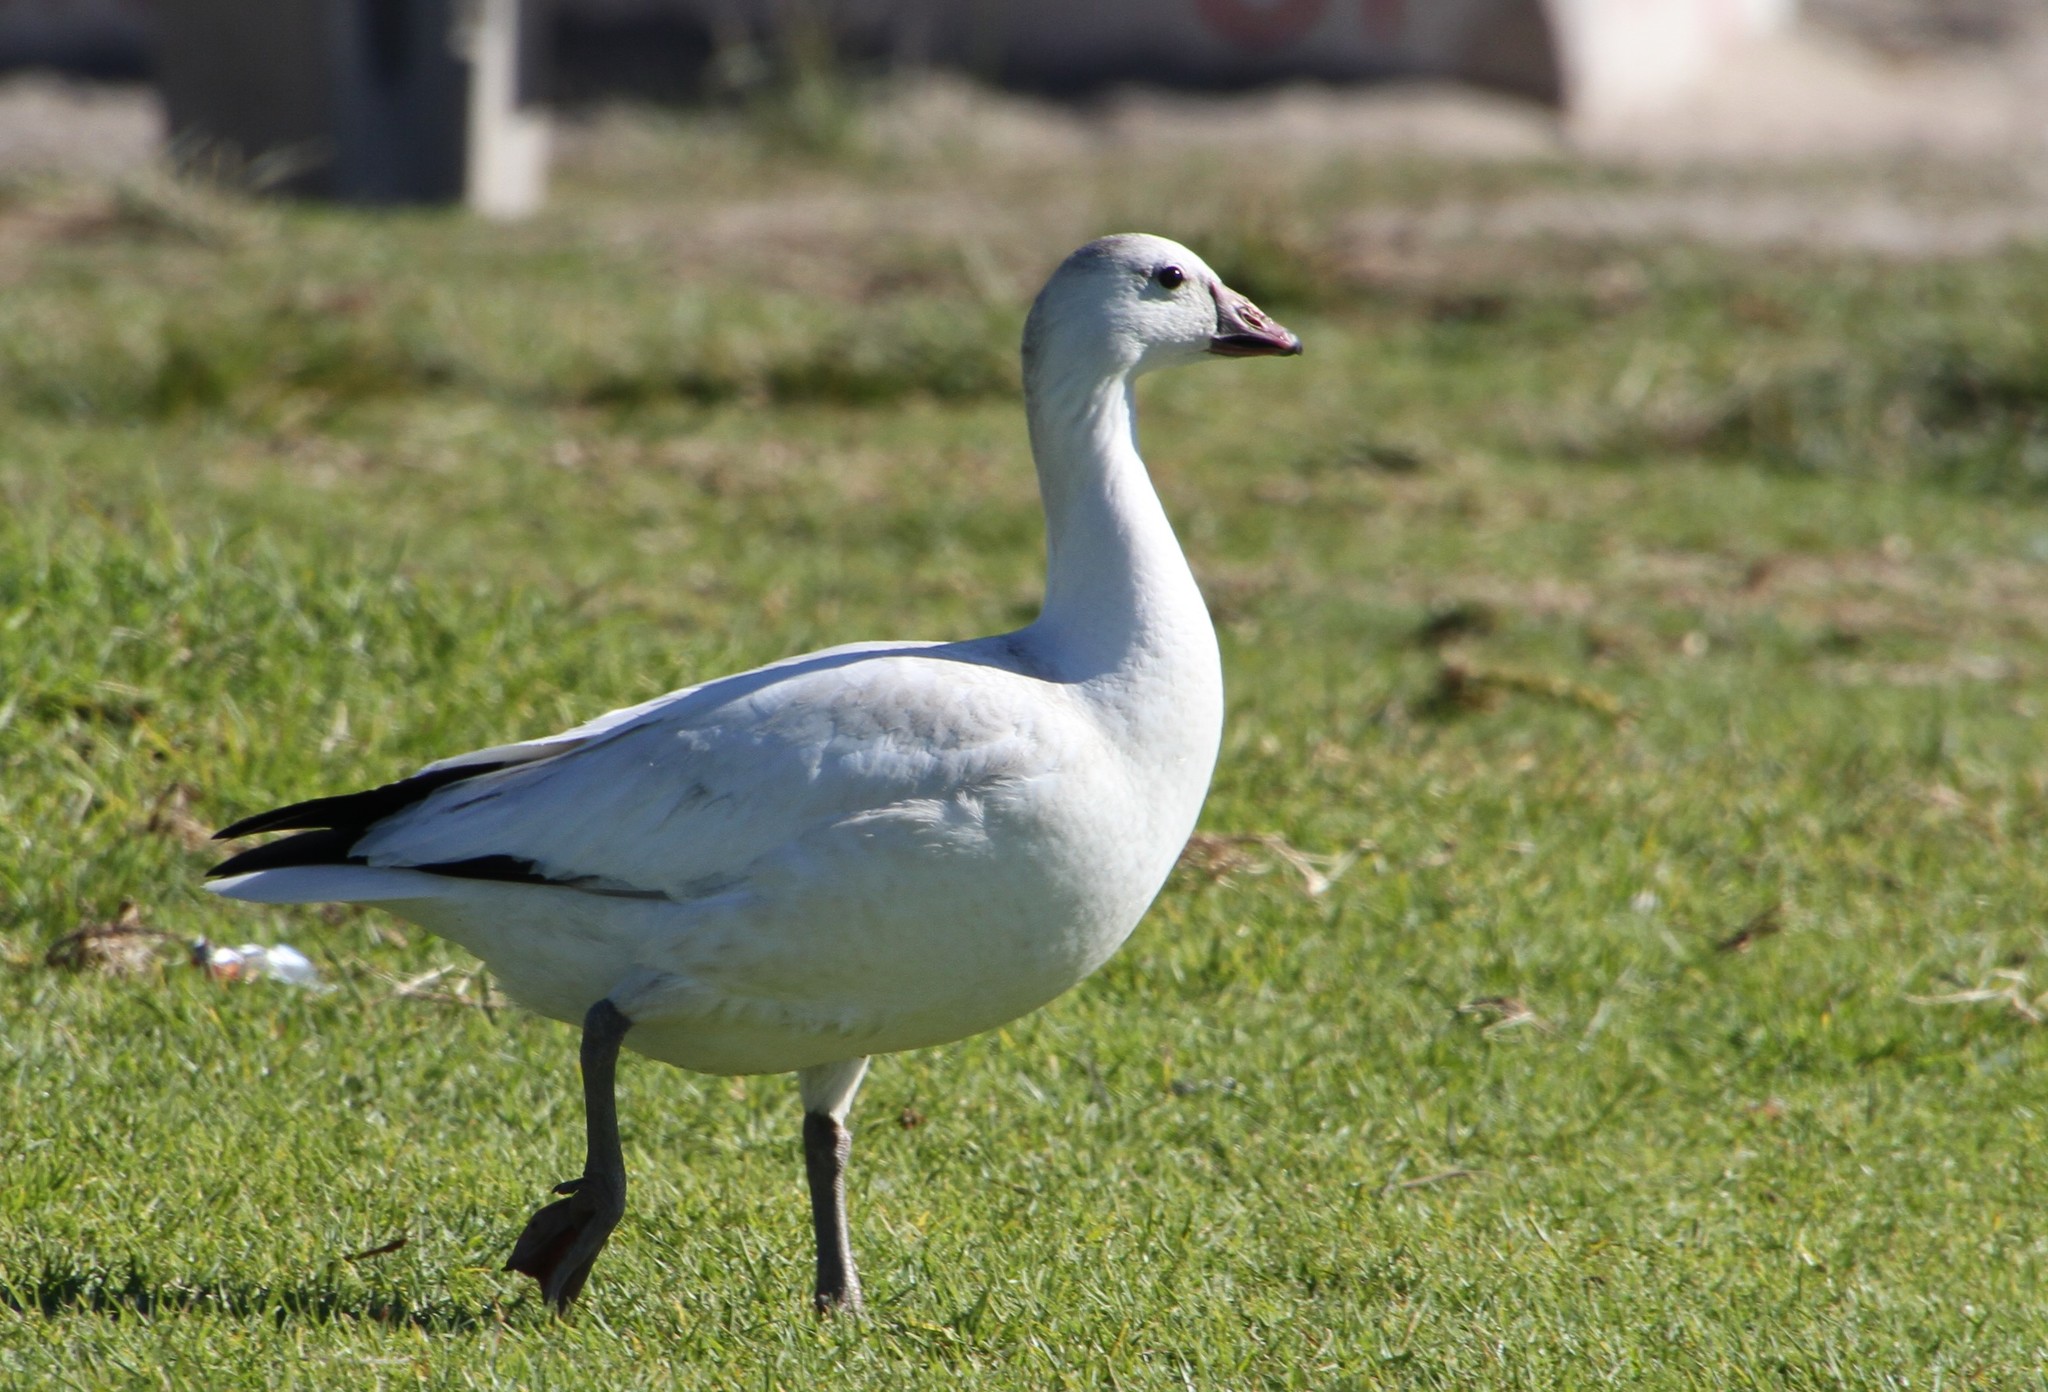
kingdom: Animalia
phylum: Chordata
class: Aves
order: Anseriformes
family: Anatidae
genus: Anser
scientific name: Anser rossii
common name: Ross's goose
